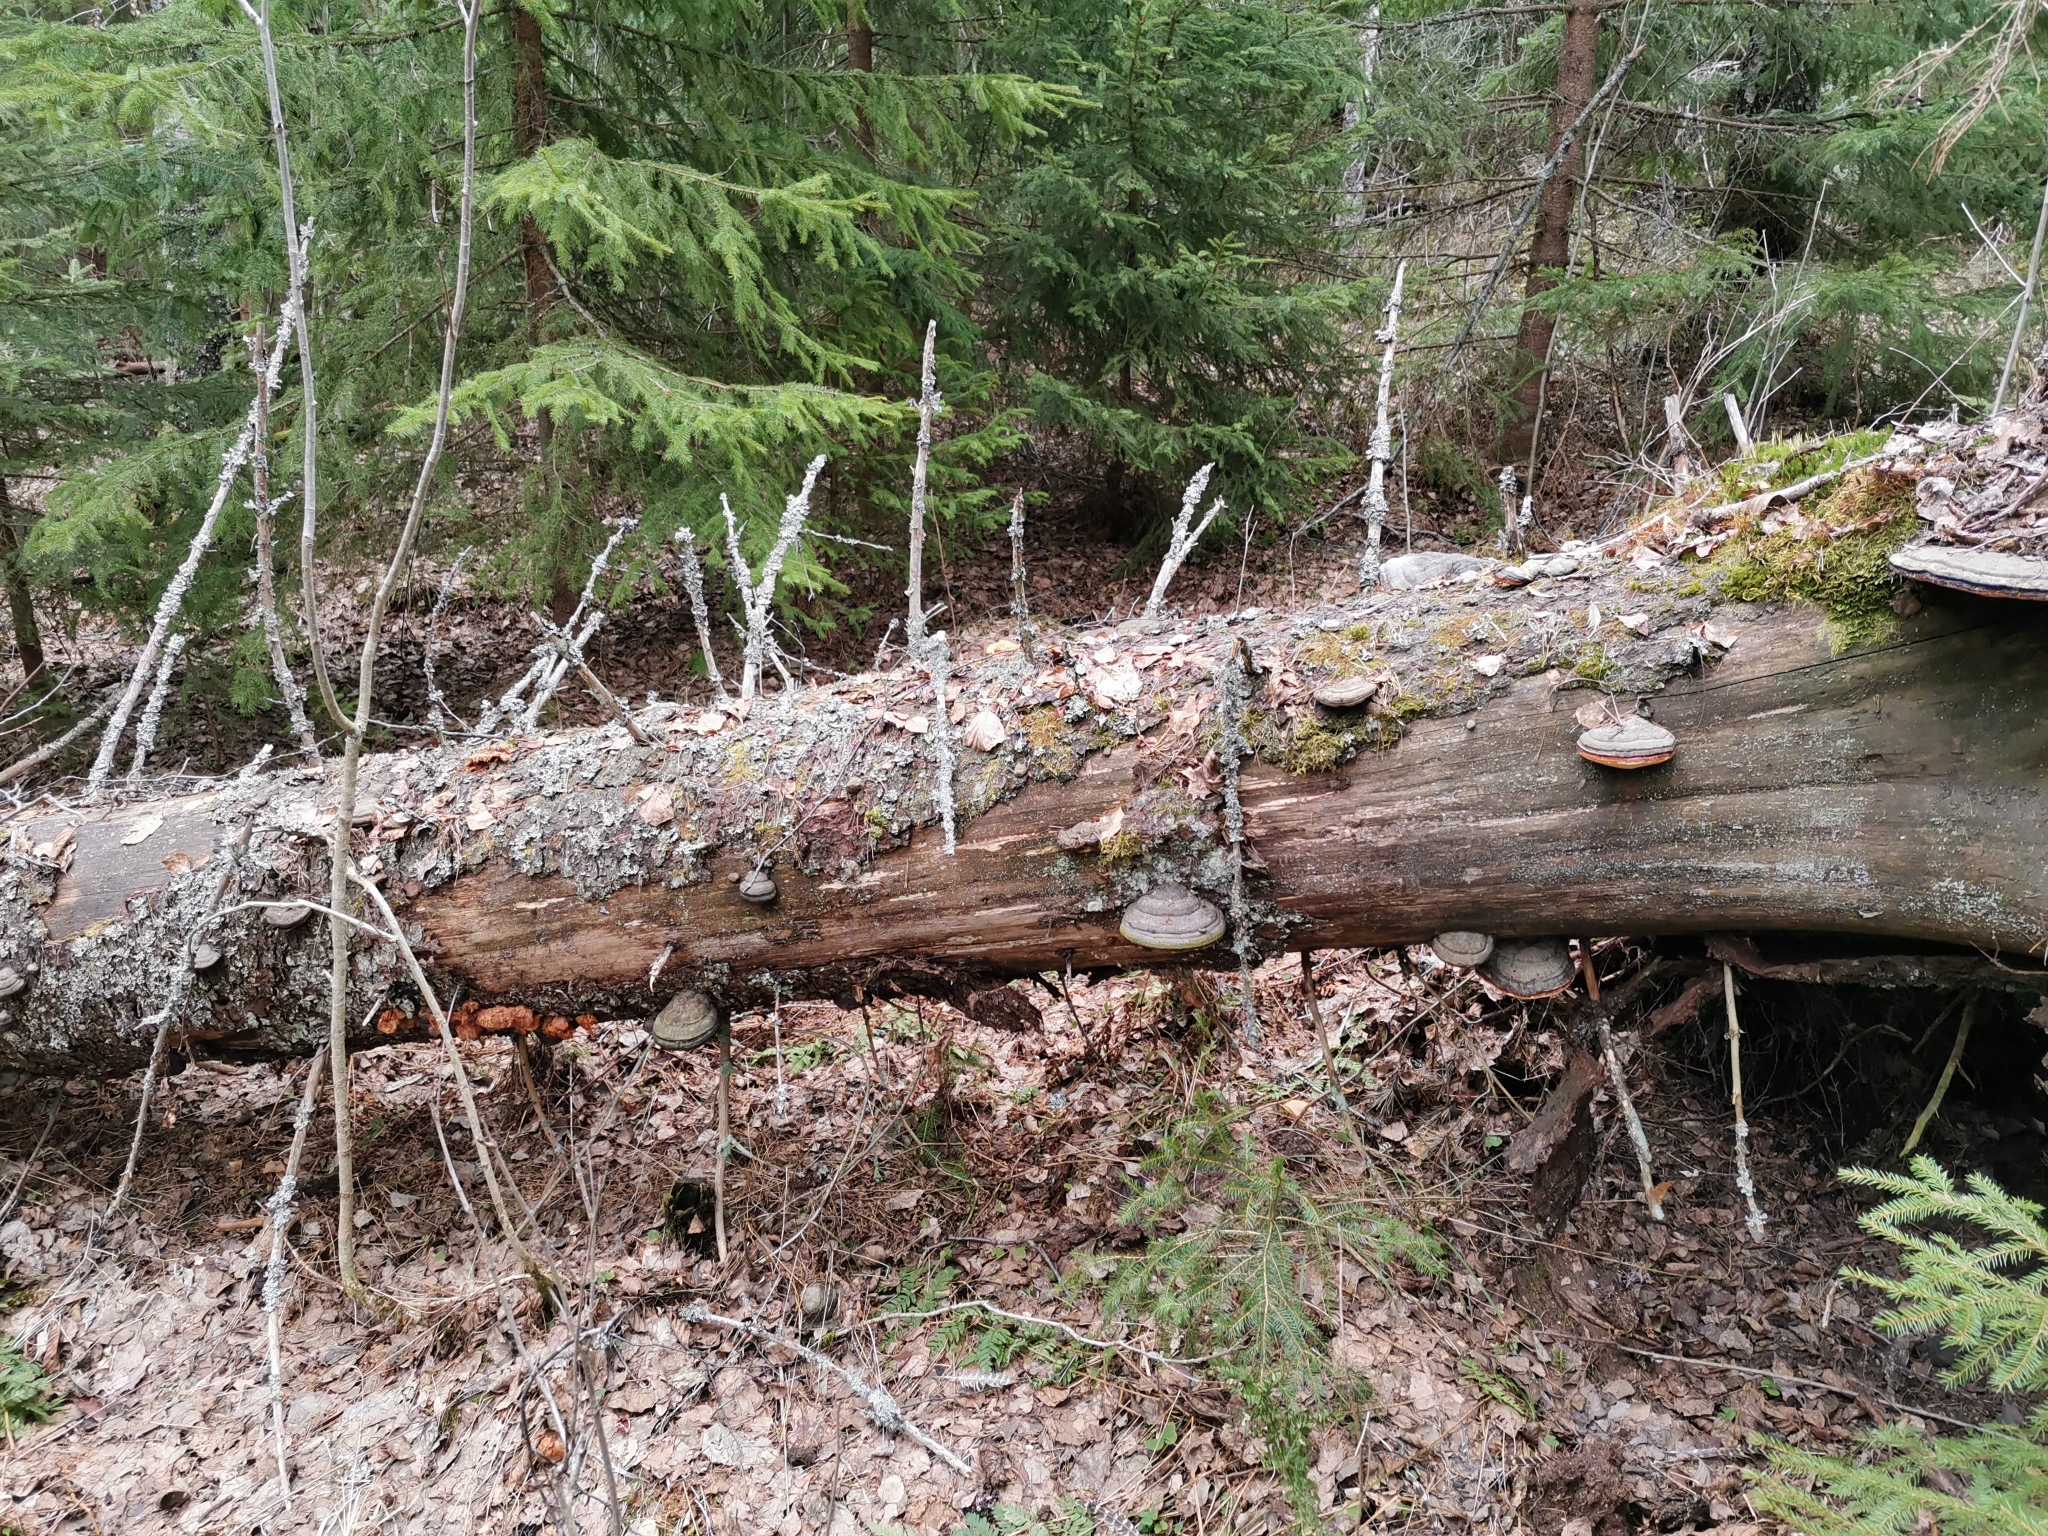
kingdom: Fungi
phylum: Basidiomycota
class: Agaricomycetes
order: Polyporales
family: Pycnoporellaceae
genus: Pycnoporellus
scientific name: Pycnoporellus fulgens
